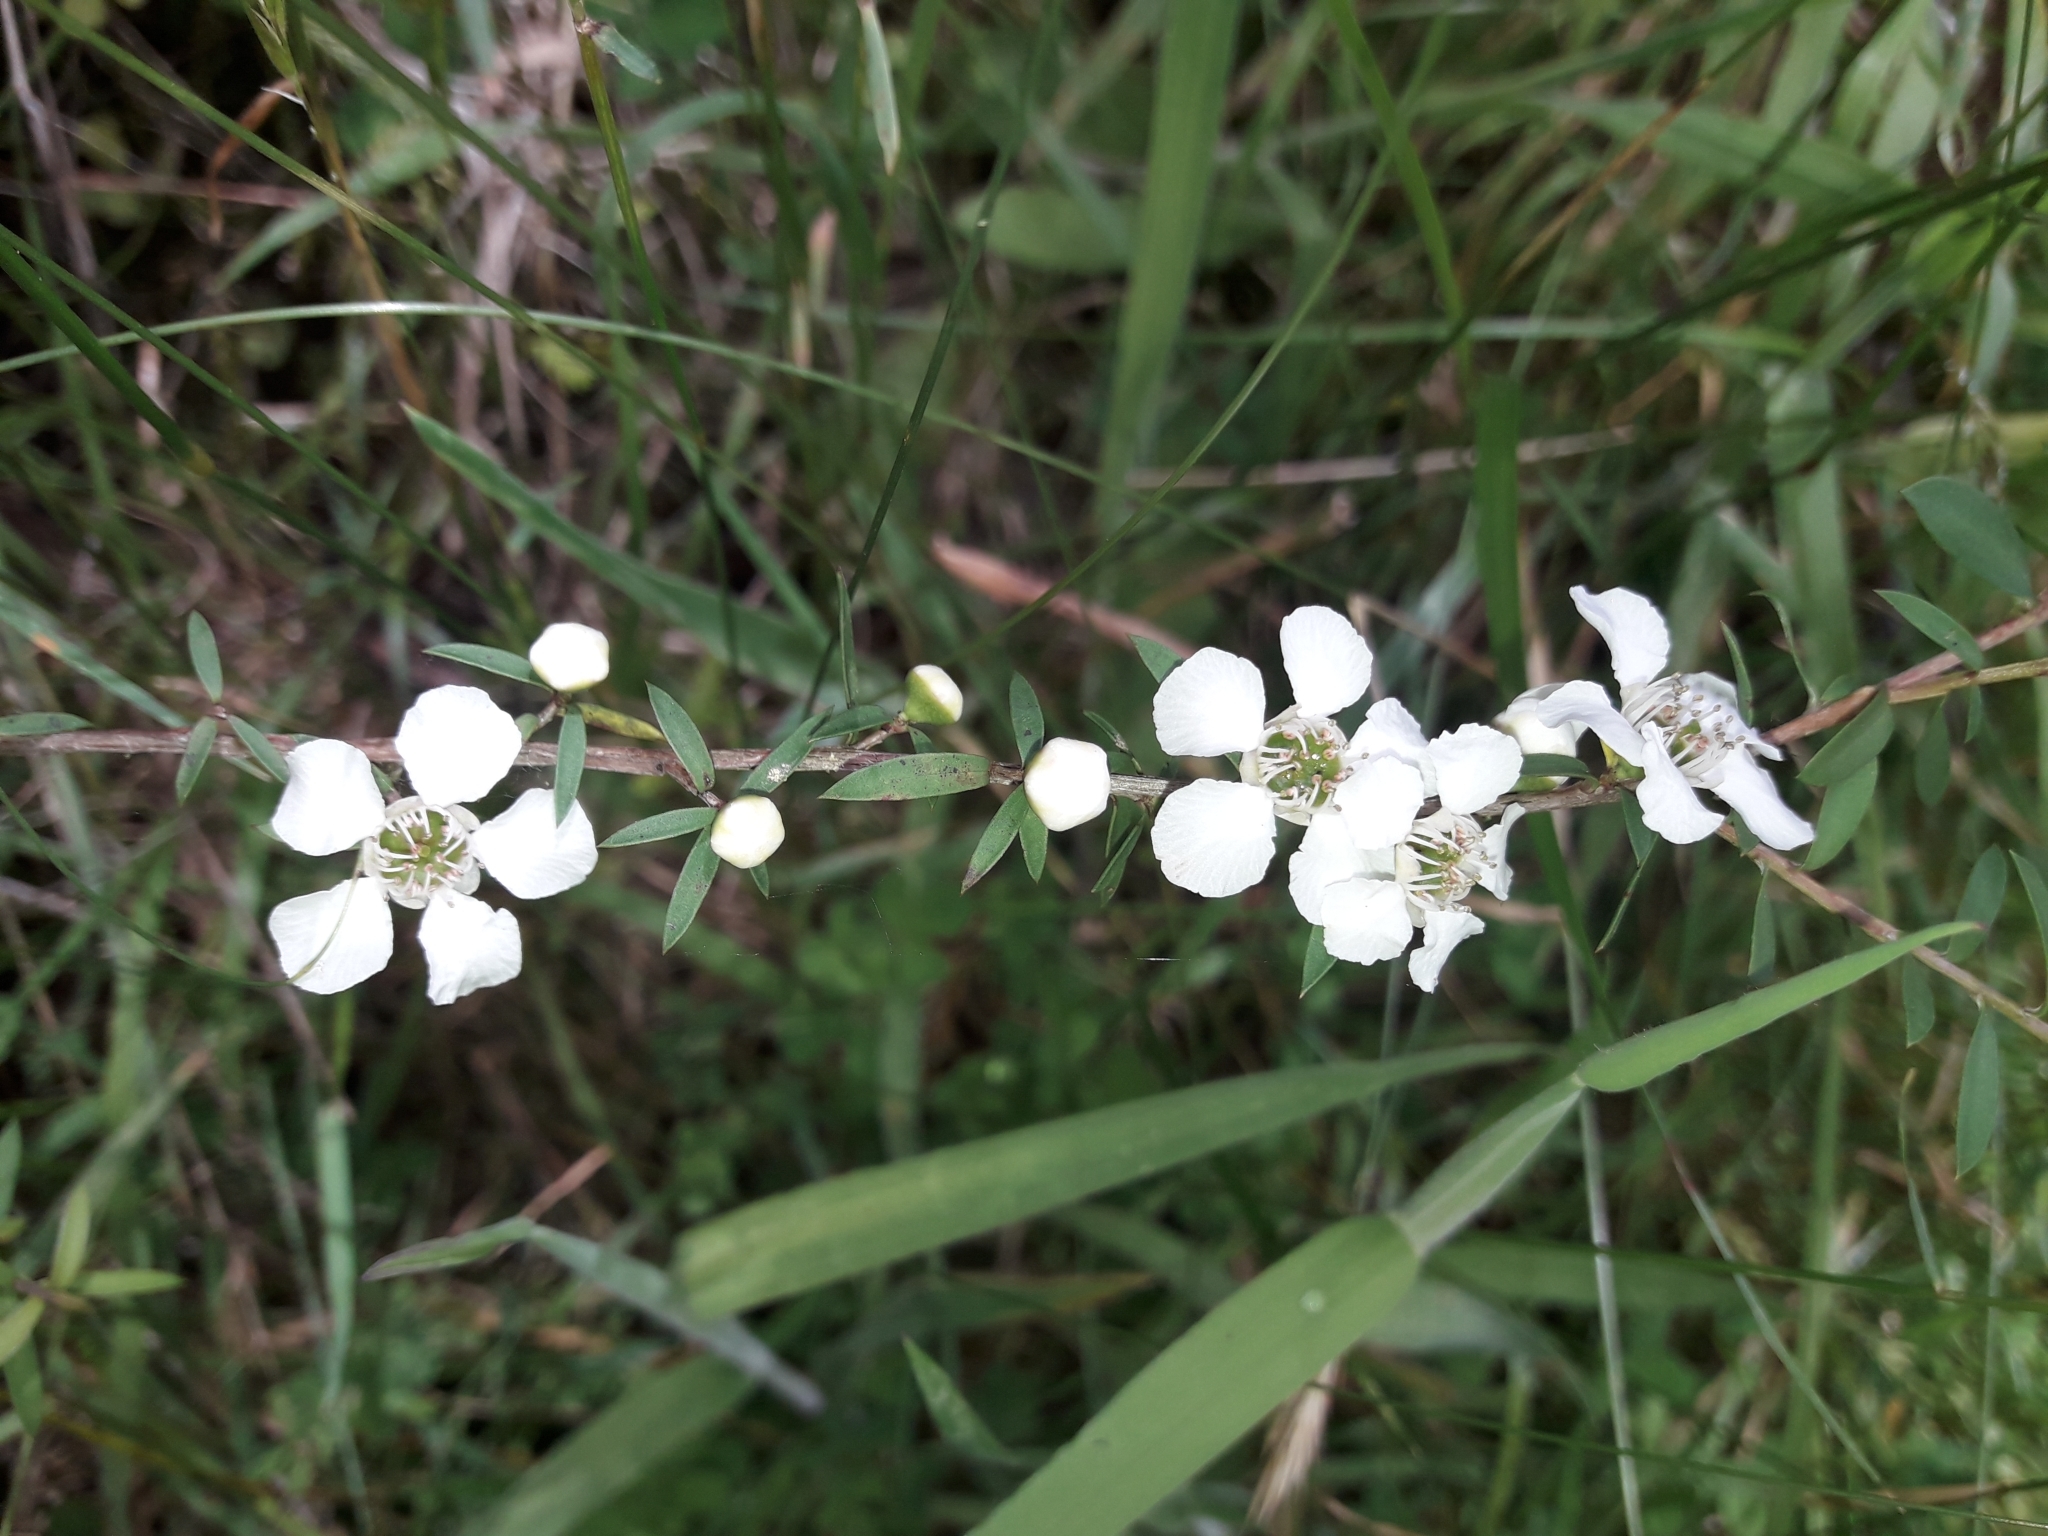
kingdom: Plantae
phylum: Tracheophyta
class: Magnoliopsida
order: Myrtales
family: Myrtaceae
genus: Leptospermum
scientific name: Leptospermum scoparium
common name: Broom tea-tree
